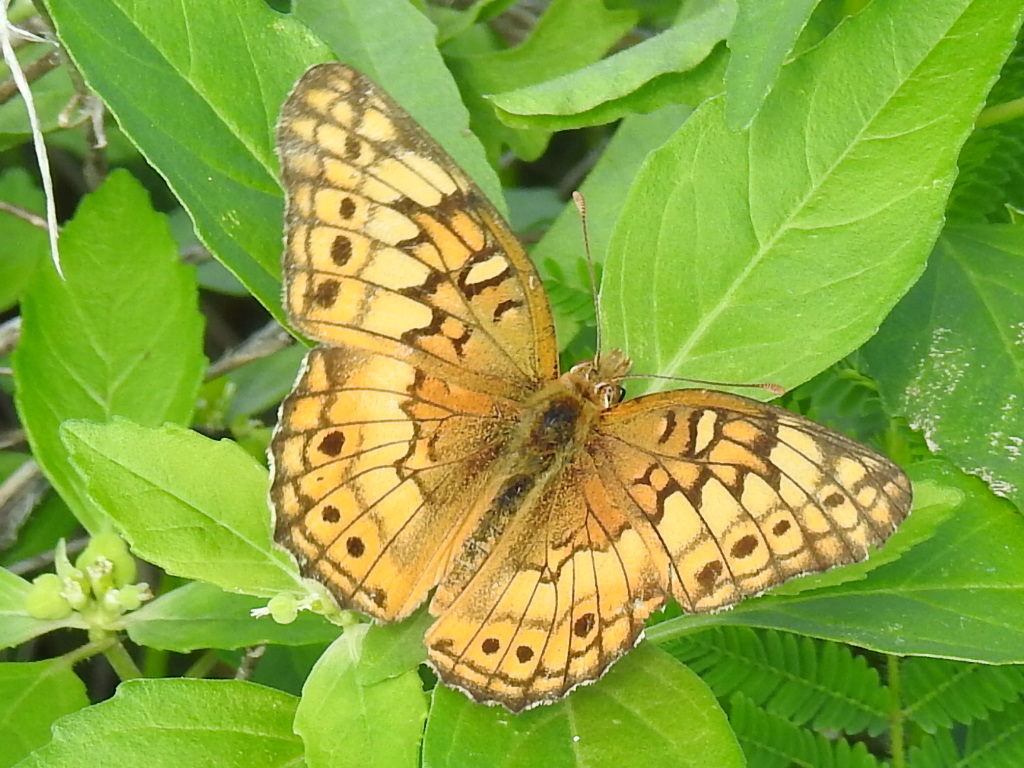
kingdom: Animalia
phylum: Arthropoda
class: Insecta
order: Lepidoptera
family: Nymphalidae
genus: Euptoieta
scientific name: Euptoieta claudia
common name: Variegated fritillary
